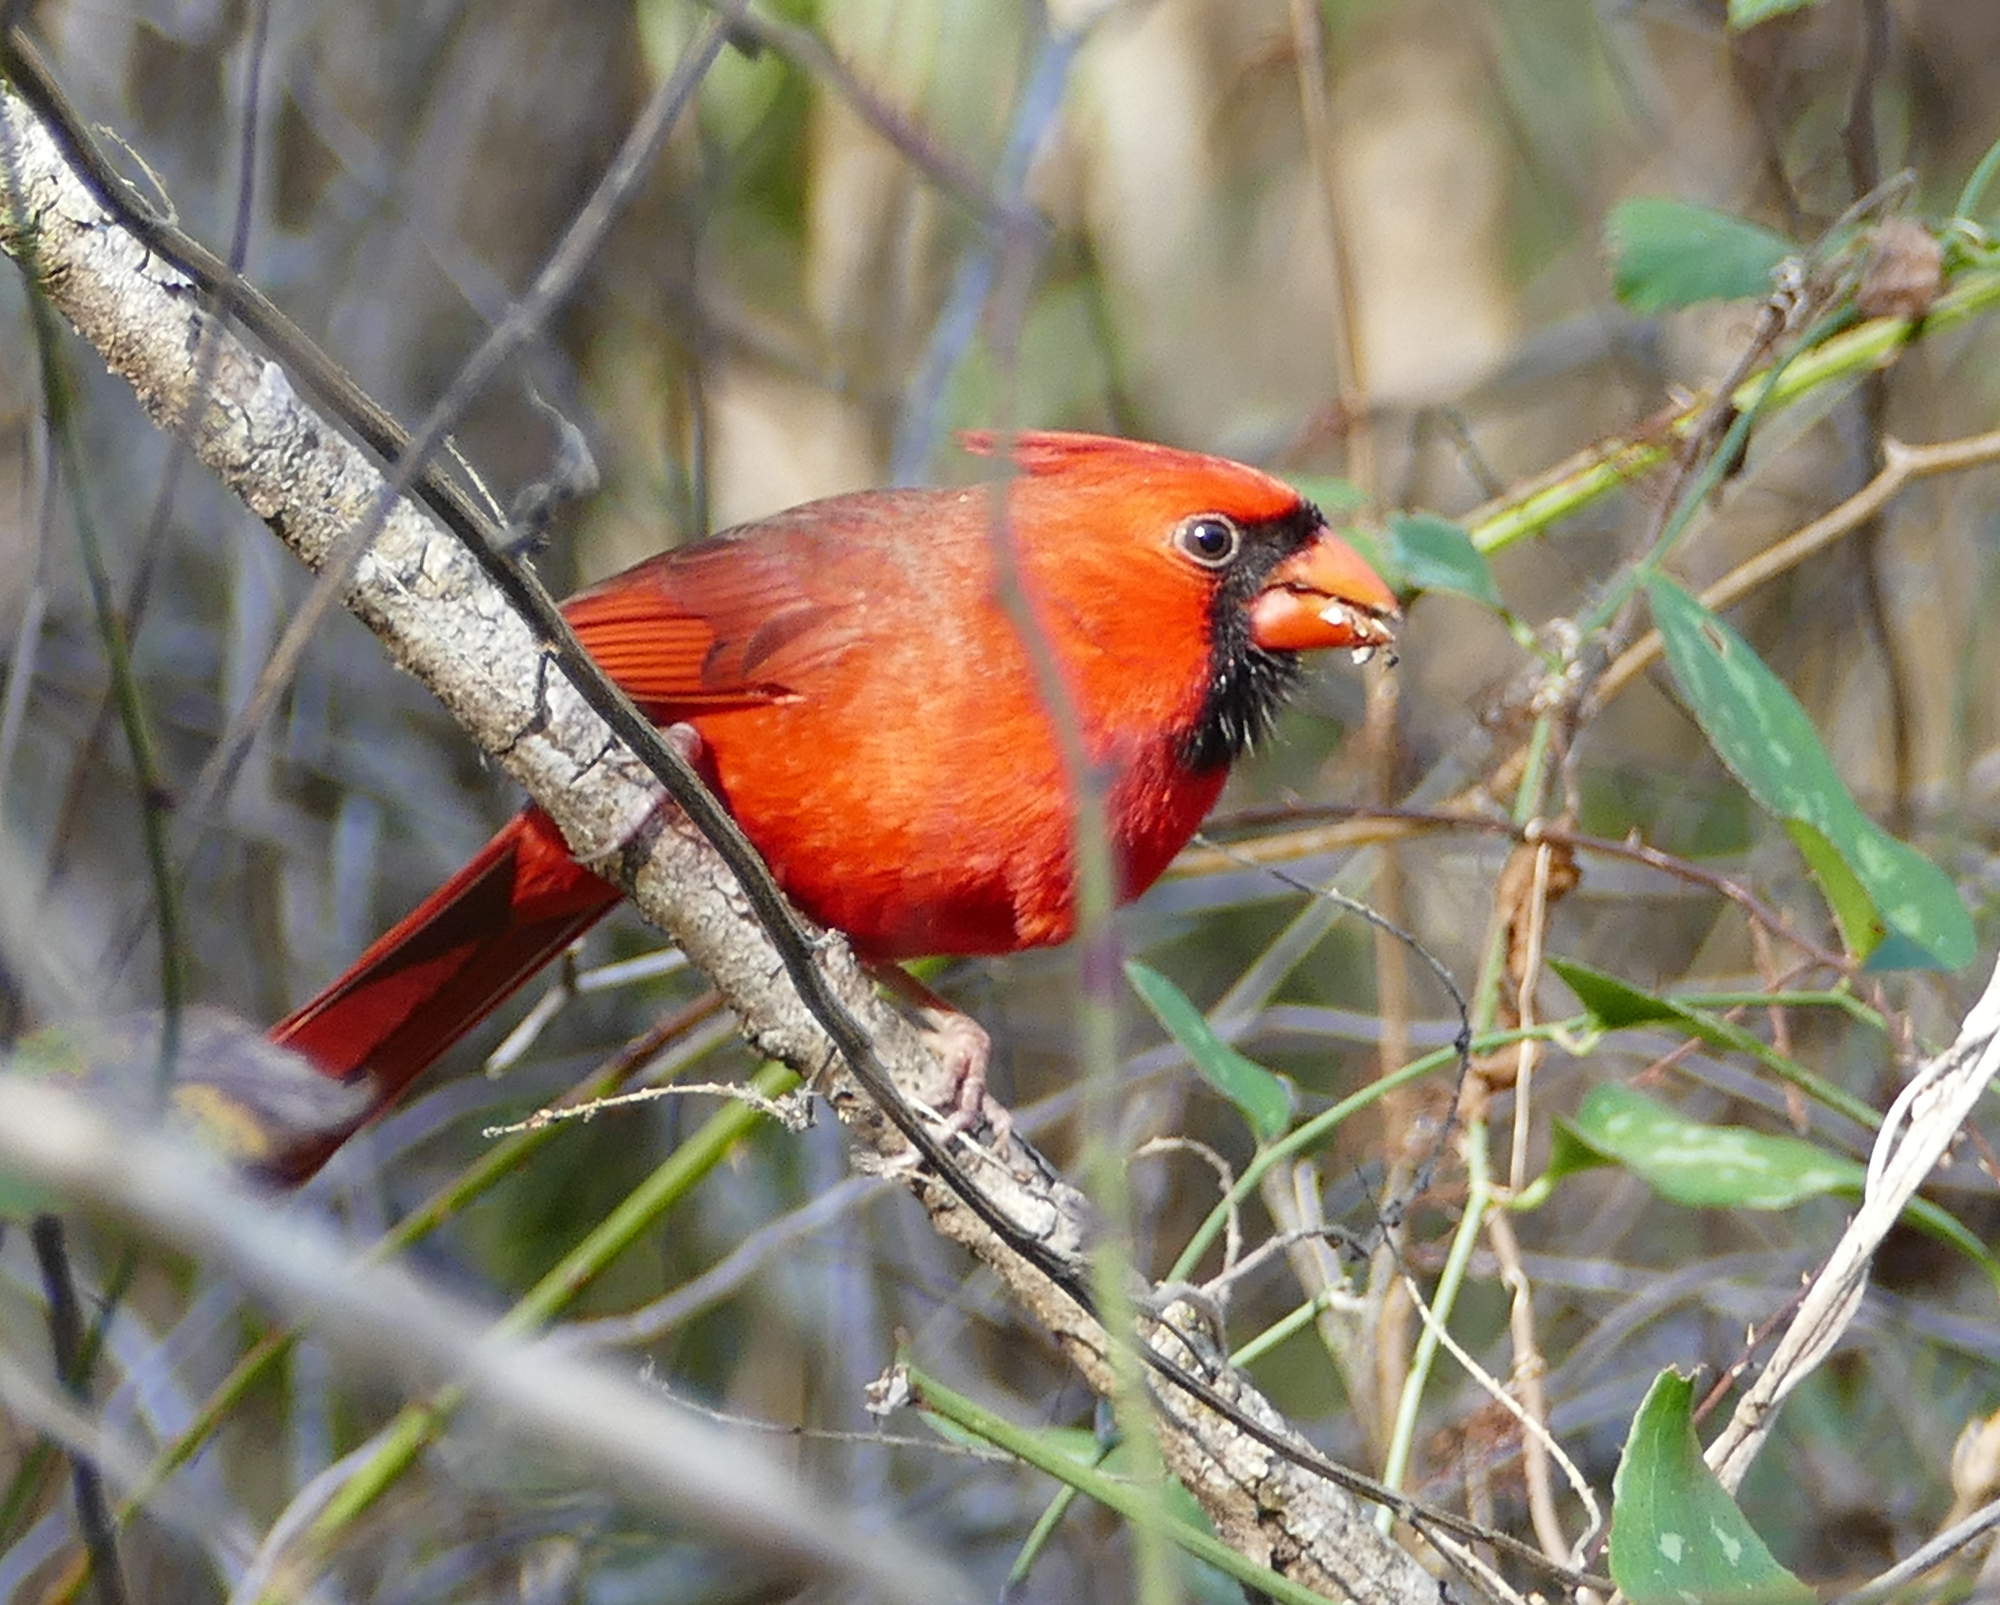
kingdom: Animalia
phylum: Chordata
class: Aves
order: Passeriformes
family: Cardinalidae
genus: Cardinalis
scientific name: Cardinalis cardinalis
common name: Northern cardinal
